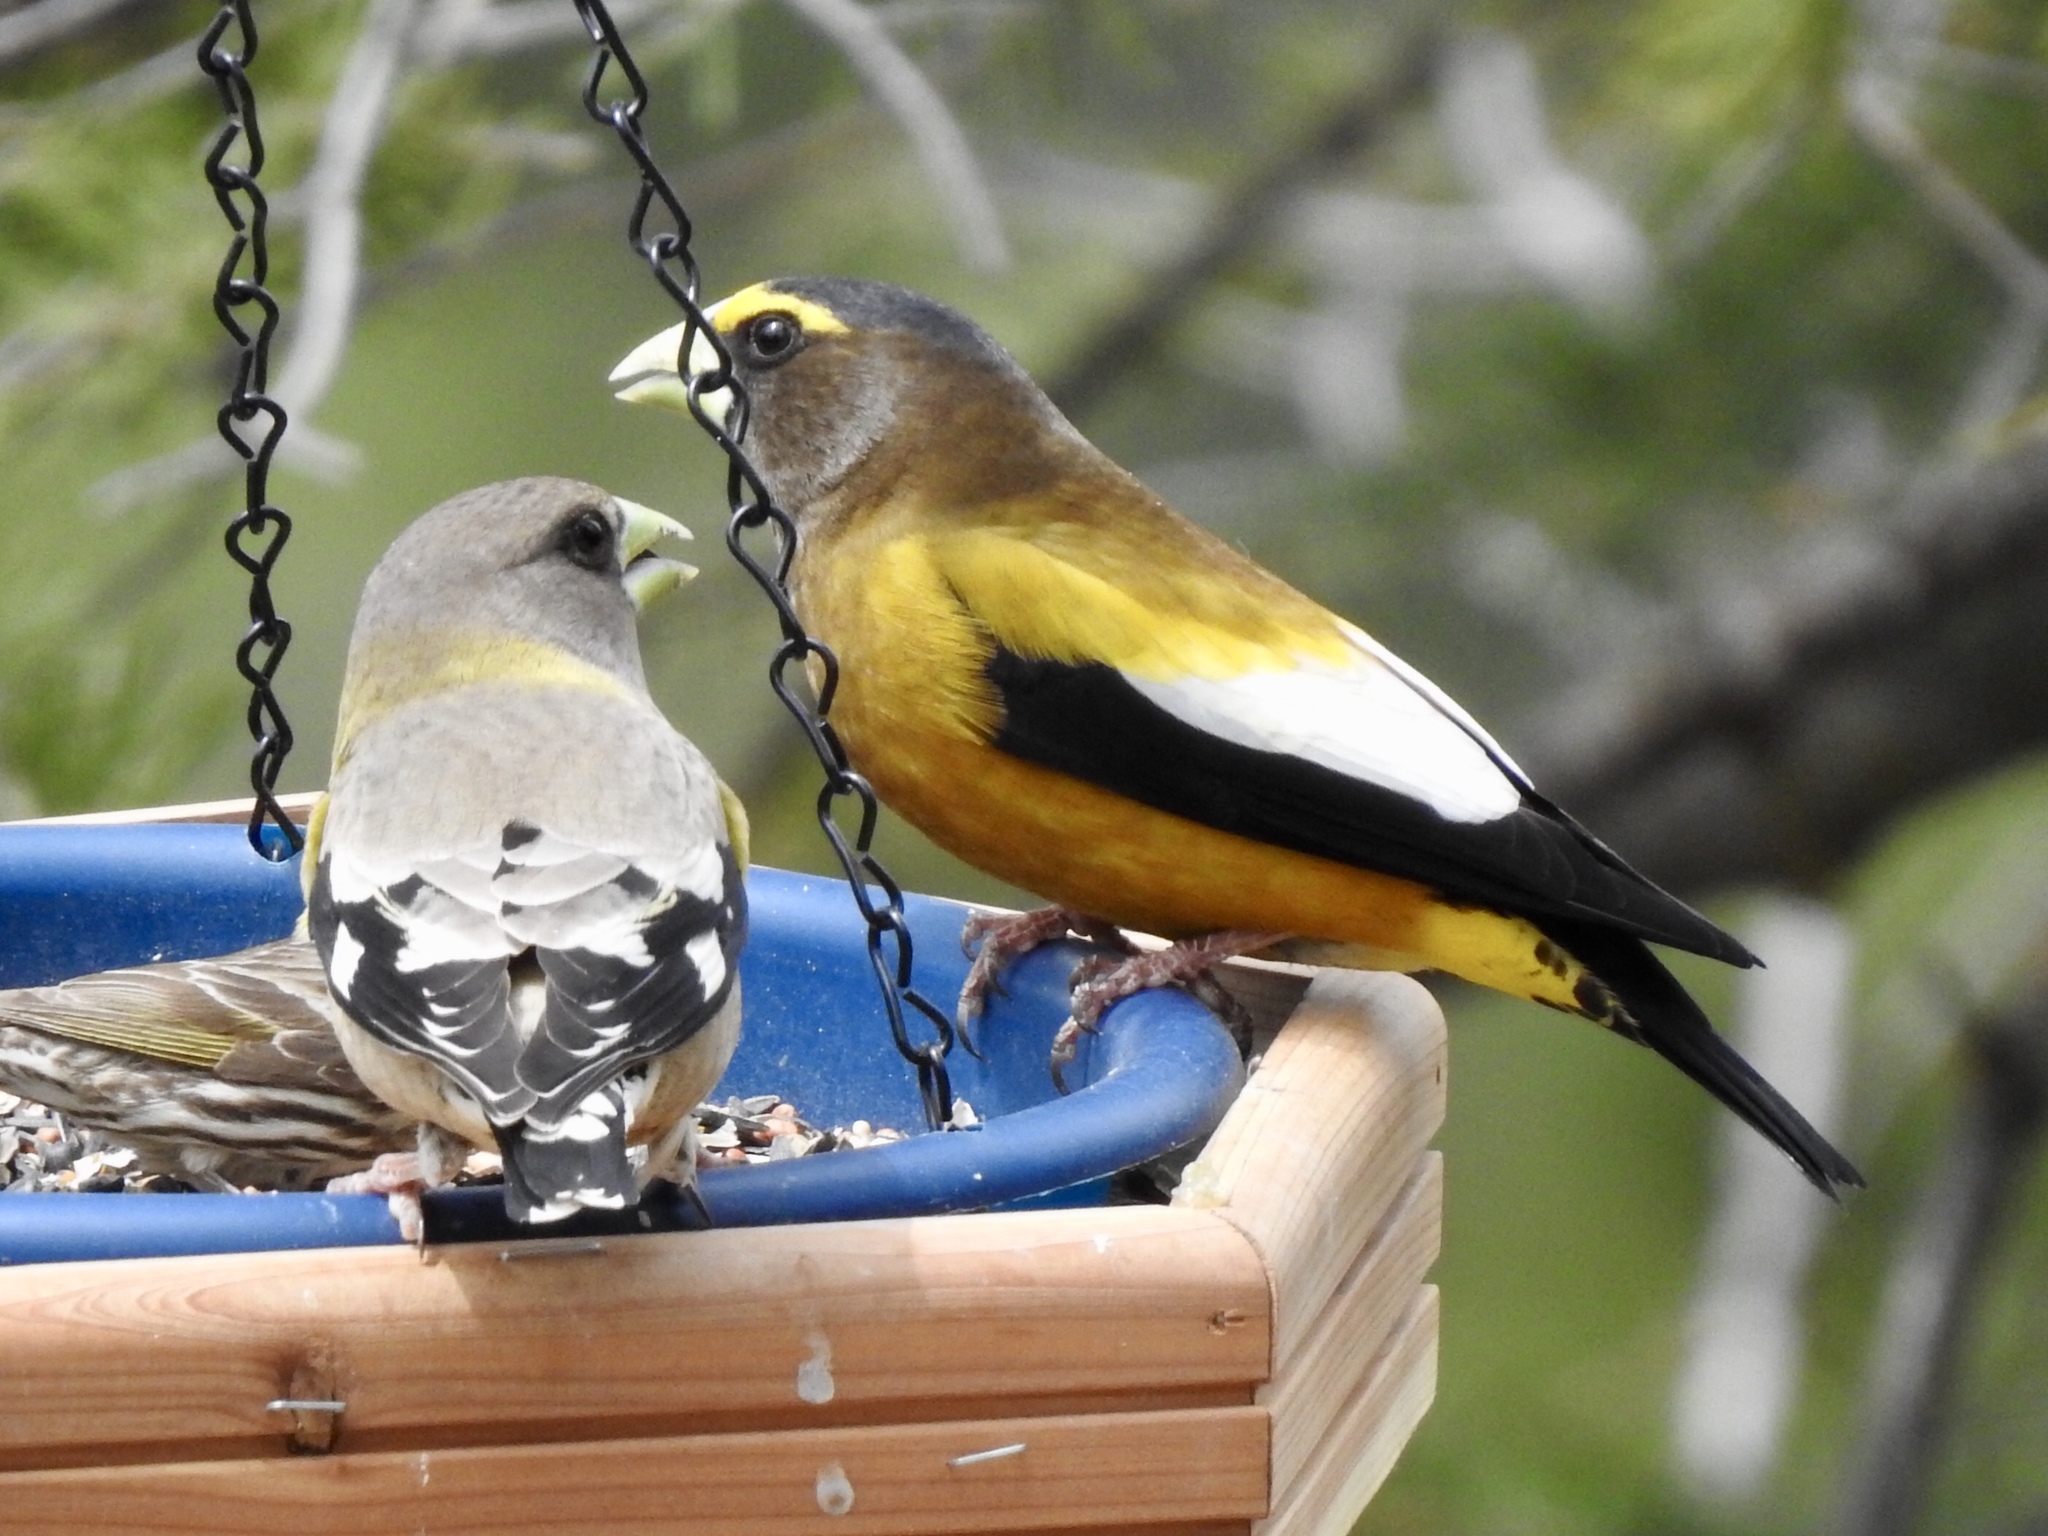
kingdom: Animalia
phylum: Chordata
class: Aves
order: Passeriformes
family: Fringillidae
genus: Hesperiphona
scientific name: Hesperiphona vespertina
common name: Evening grosbeak
